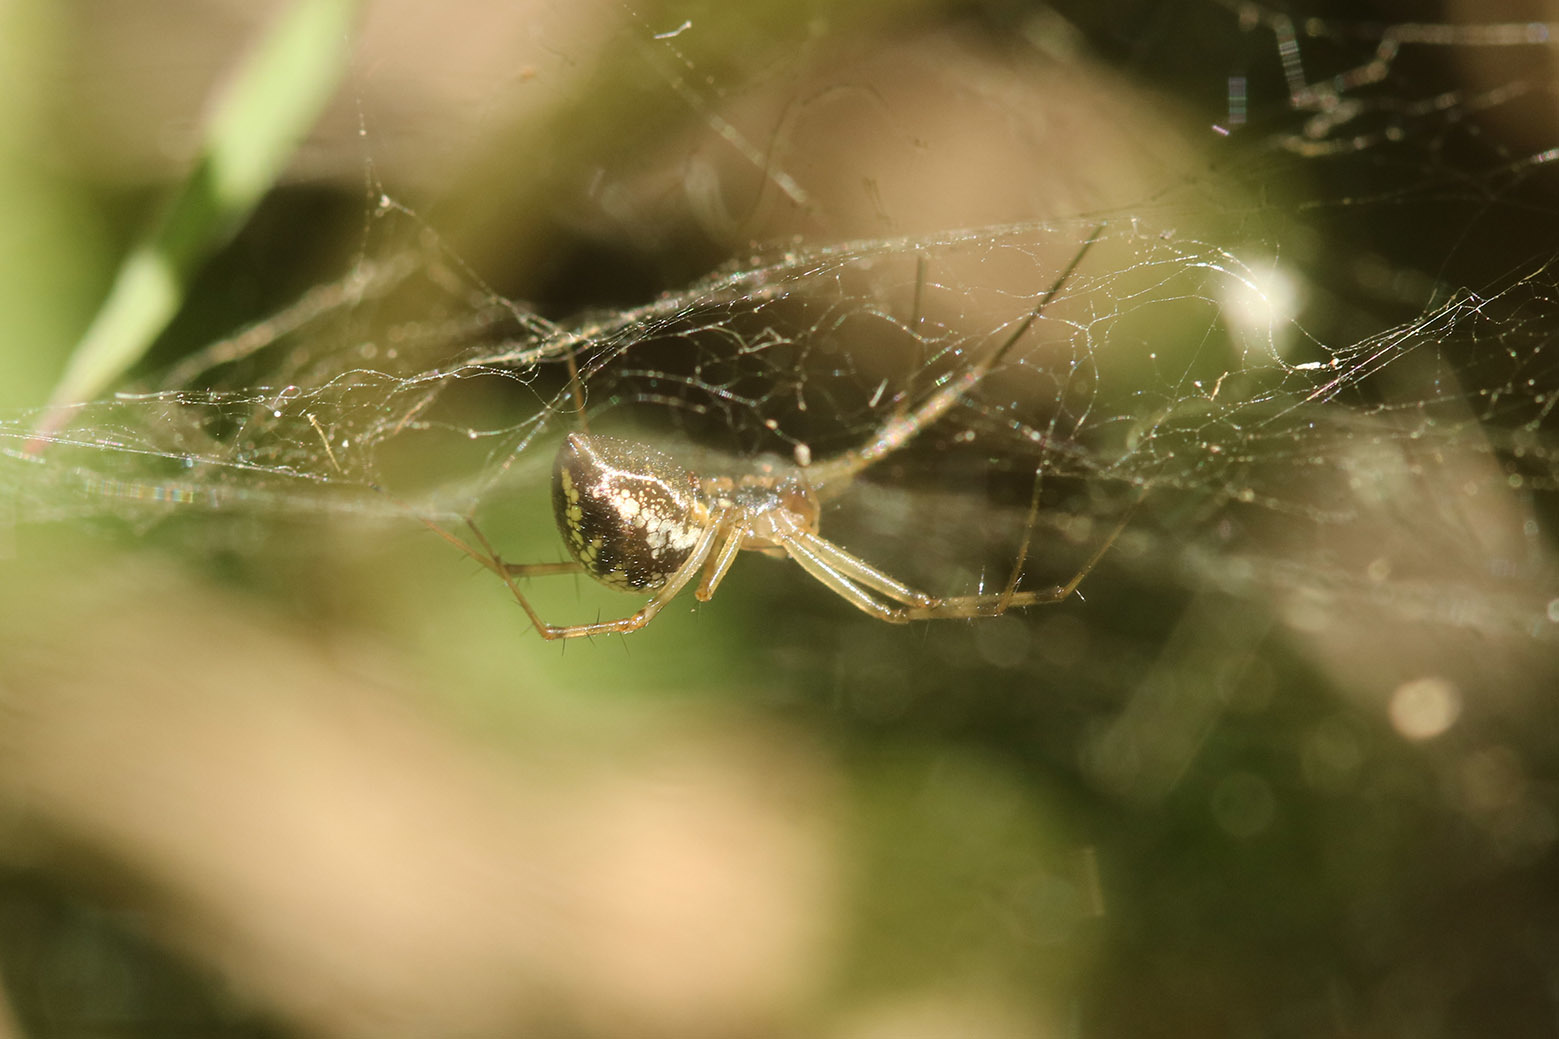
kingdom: Animalia
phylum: Arthropoda
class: Arachnida
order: Araneae
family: Linyphiidae
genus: Dubiaranea
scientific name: Dubiaranea
